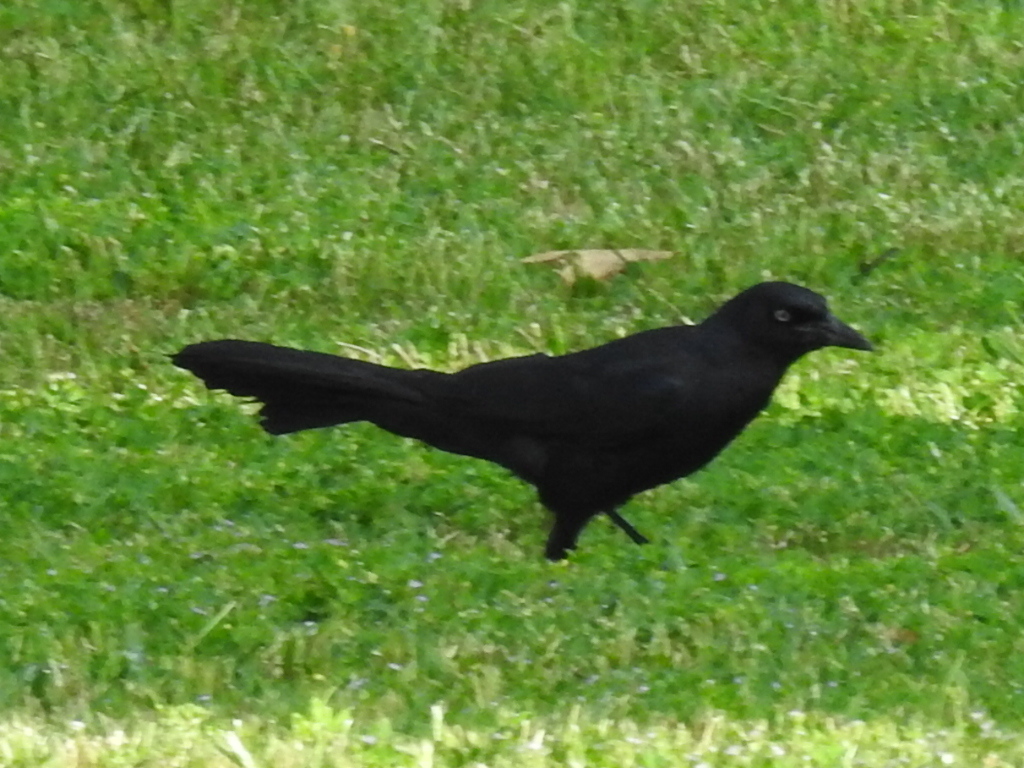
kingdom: Animalia
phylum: Chordata
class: Aves
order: Passeriformes
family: Icteridae
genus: Quiscalus
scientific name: Quiscalus mexicanus
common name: Great-tailed grackle
